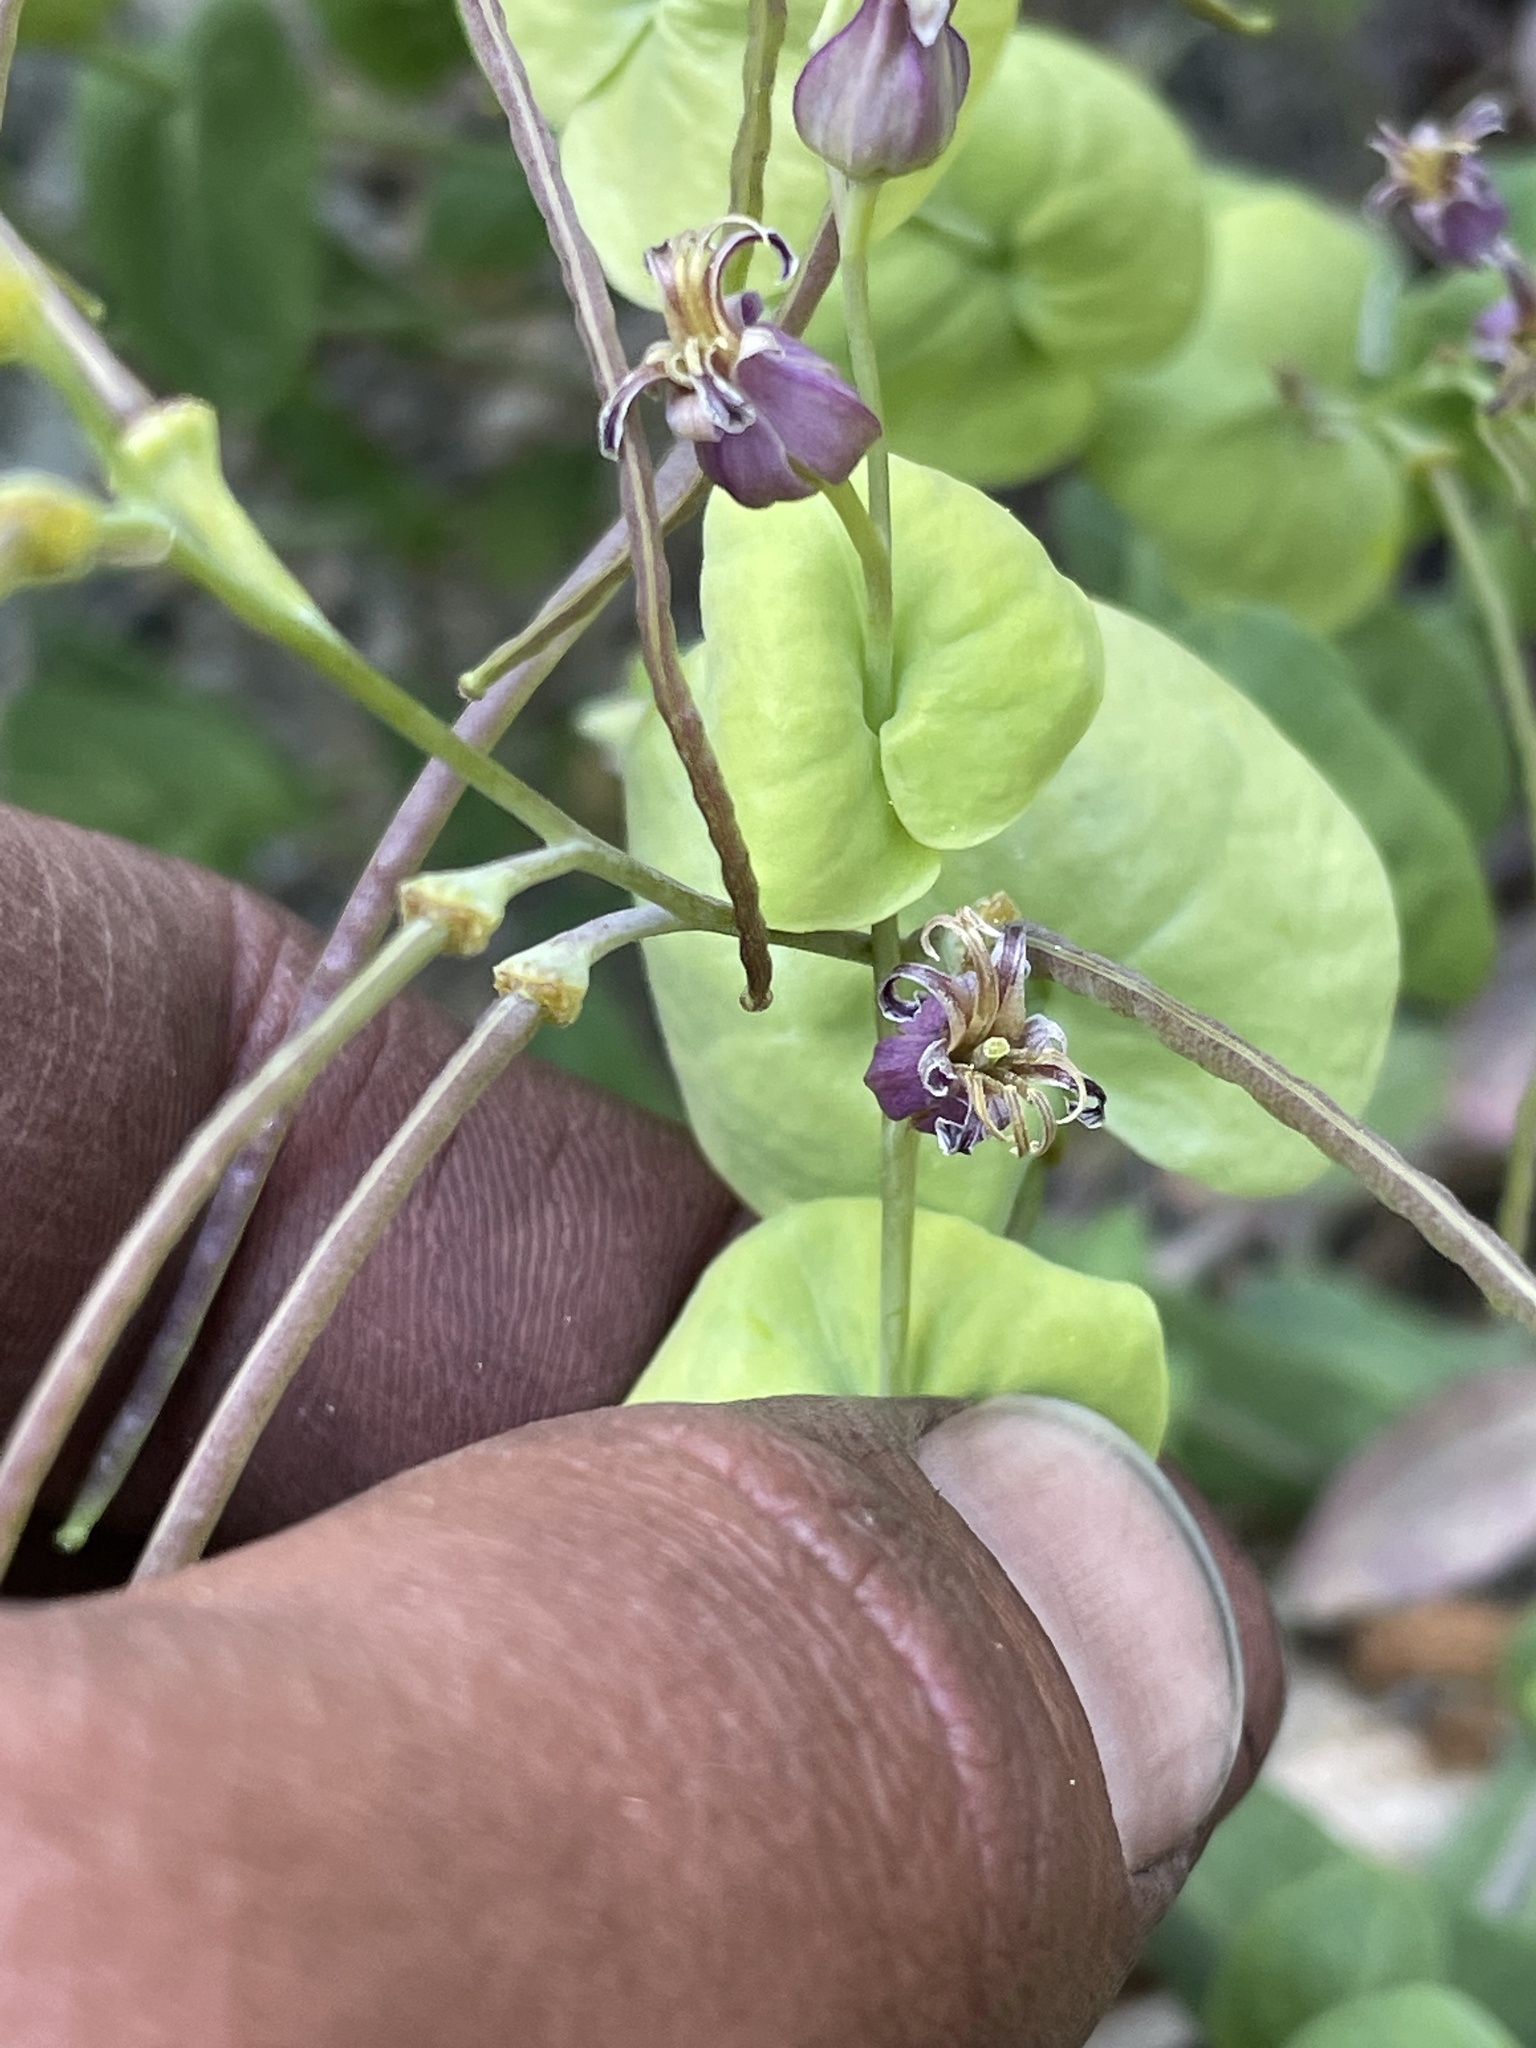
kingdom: Plantae
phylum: Tracheophyta
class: Magnoliopsida
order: Brassicales
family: Brassicaceae
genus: Streptanthus
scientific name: Streptanthus tortuosus
